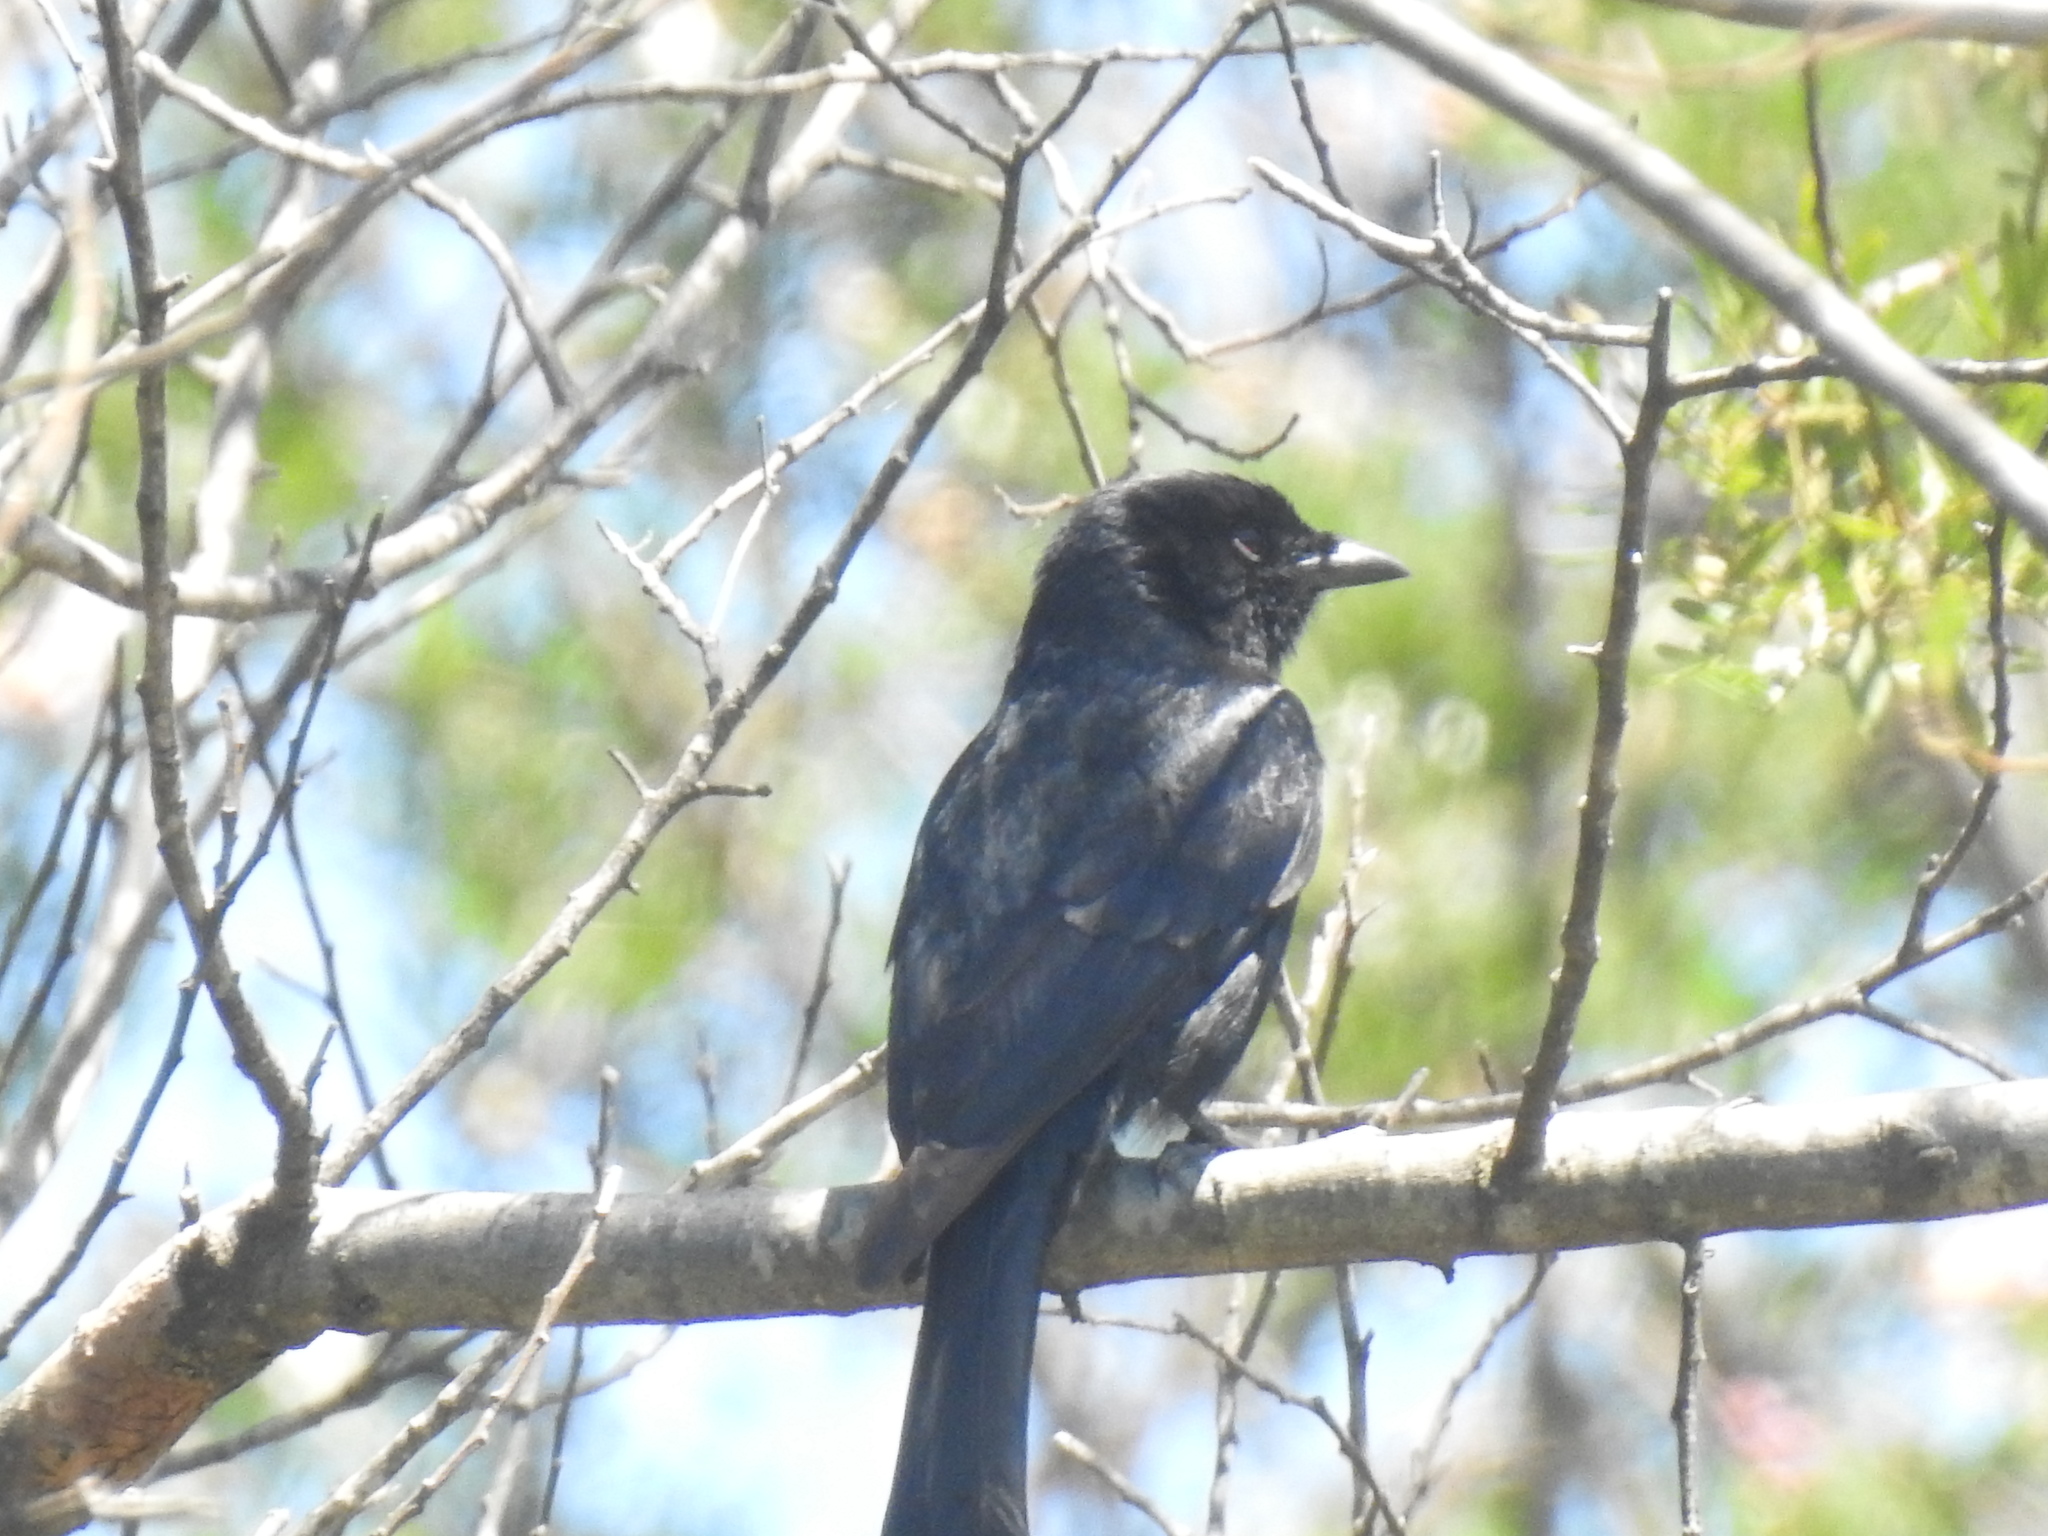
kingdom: Animalia
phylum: Chordata
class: Aves
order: Passeriformes
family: Dicruridae
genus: Dicrurus
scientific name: Dicrurus adsimilis
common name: Fork-tailed drongo
